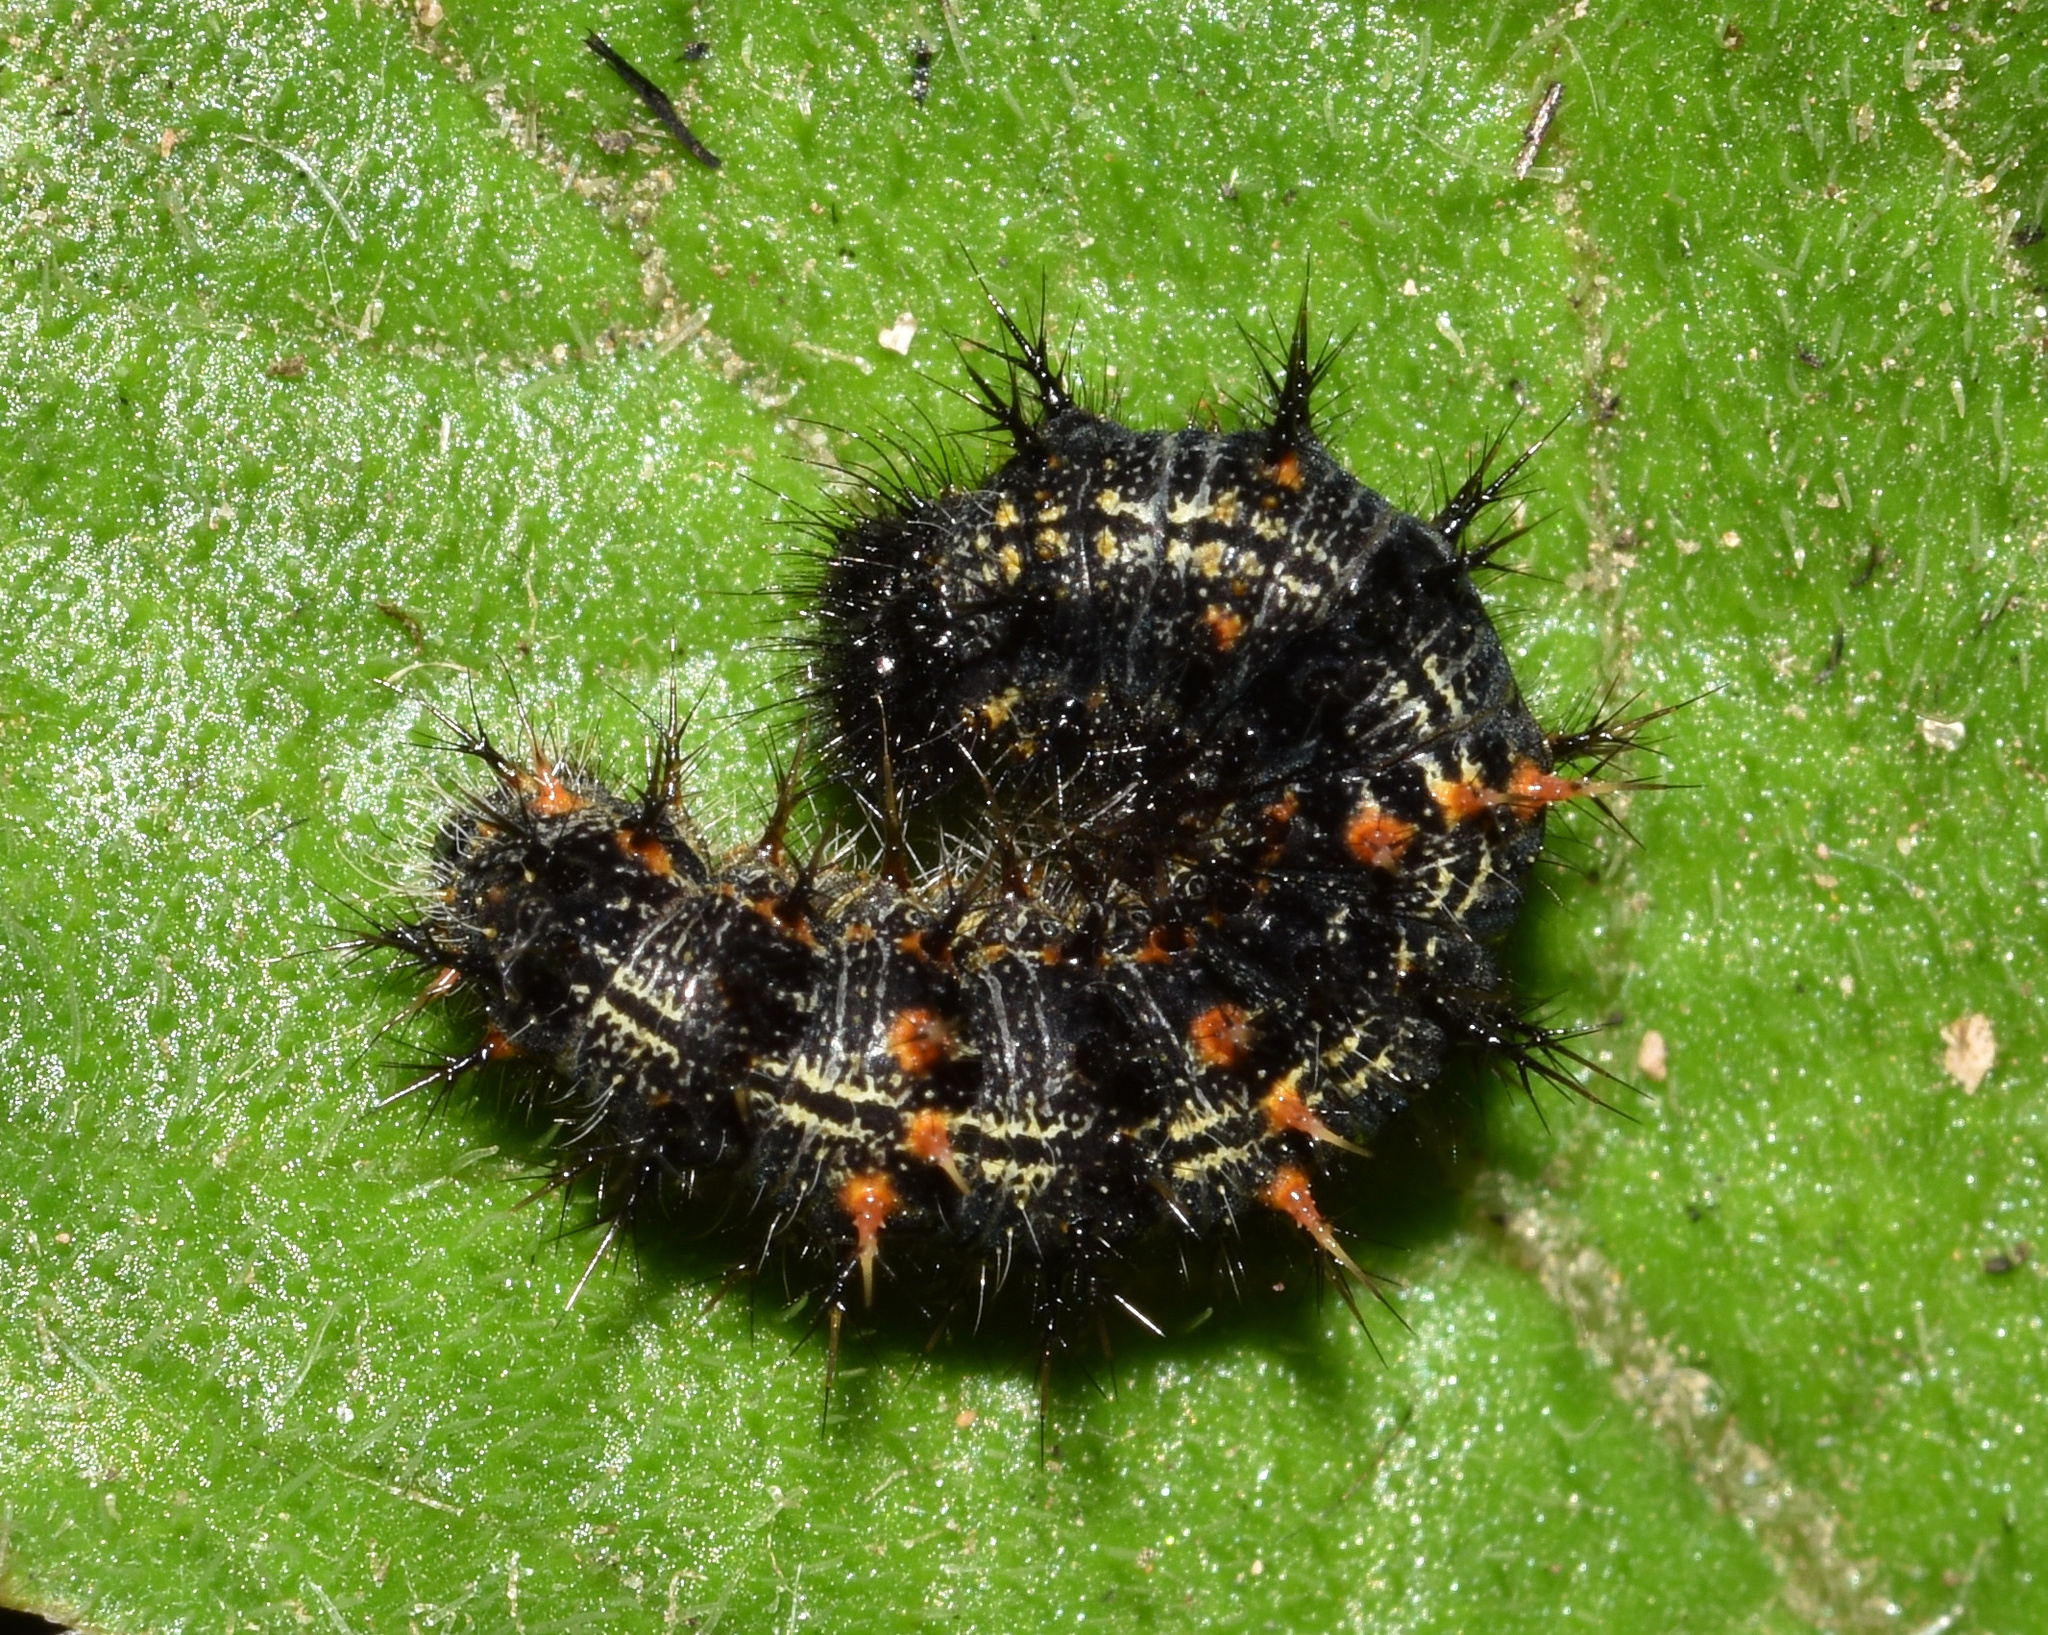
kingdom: Animalia
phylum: Arthropoda
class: Insecta
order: Lepidoptera
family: Nymphalidae
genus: Vanessa
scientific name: Vanessa cardui
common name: Painted lady
